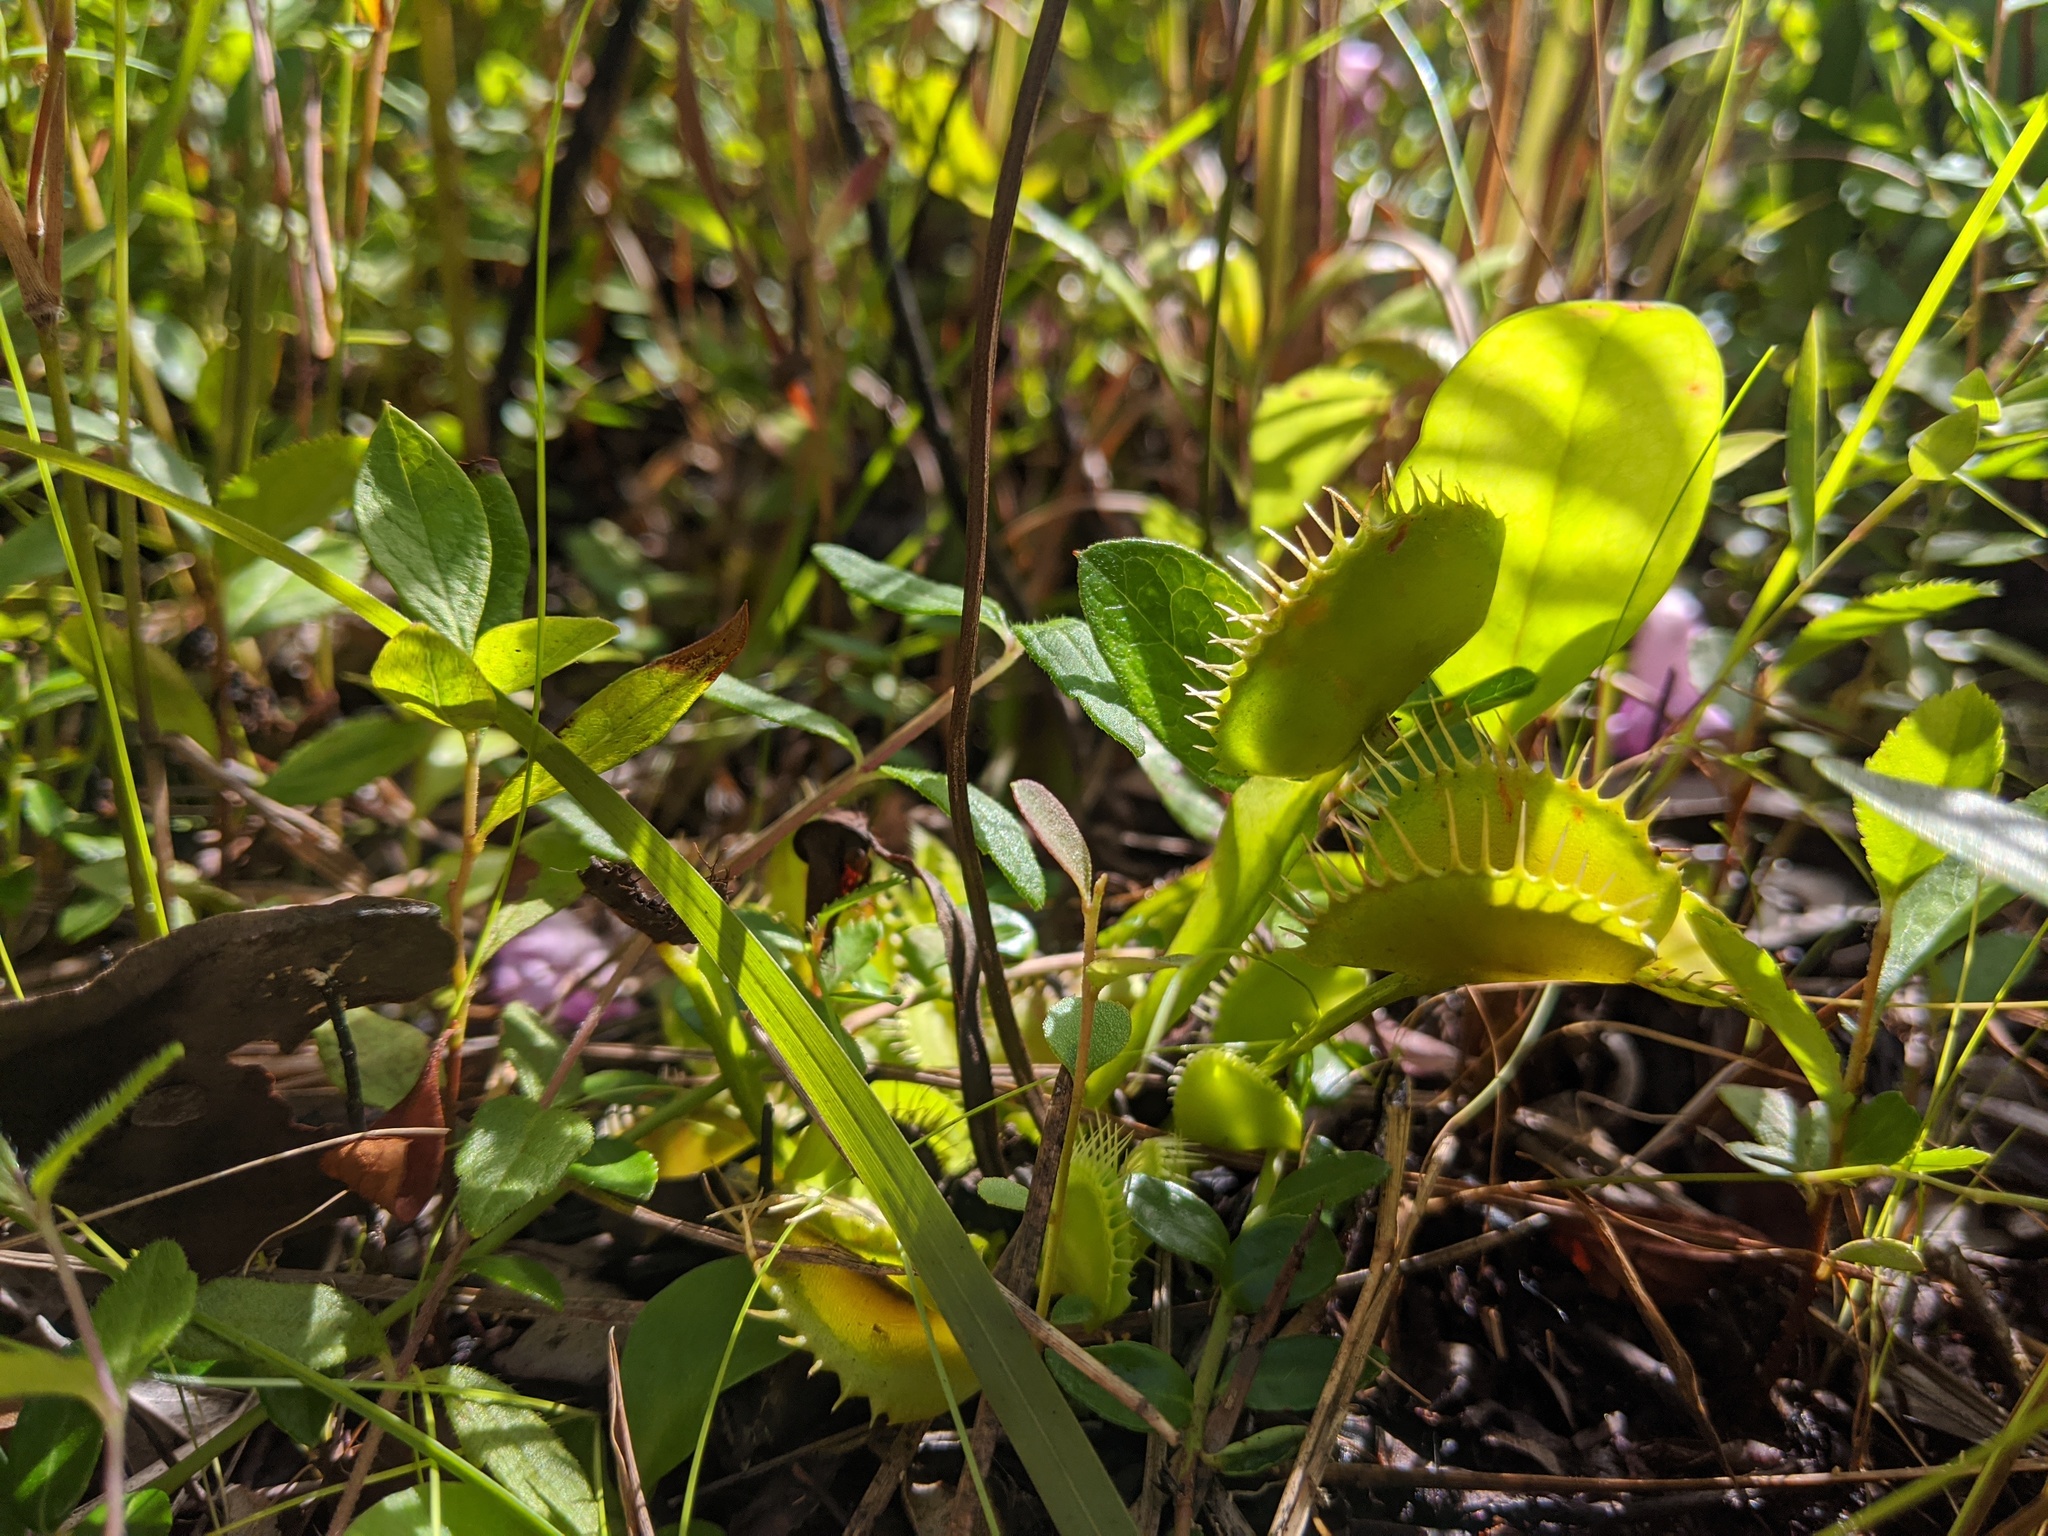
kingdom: Plantae
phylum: Tracheophyta
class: Magnoliopsida
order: Caryophyllales
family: Droseraceae
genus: Dionaea
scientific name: Dionaea muscipula
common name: Venus flytrap
